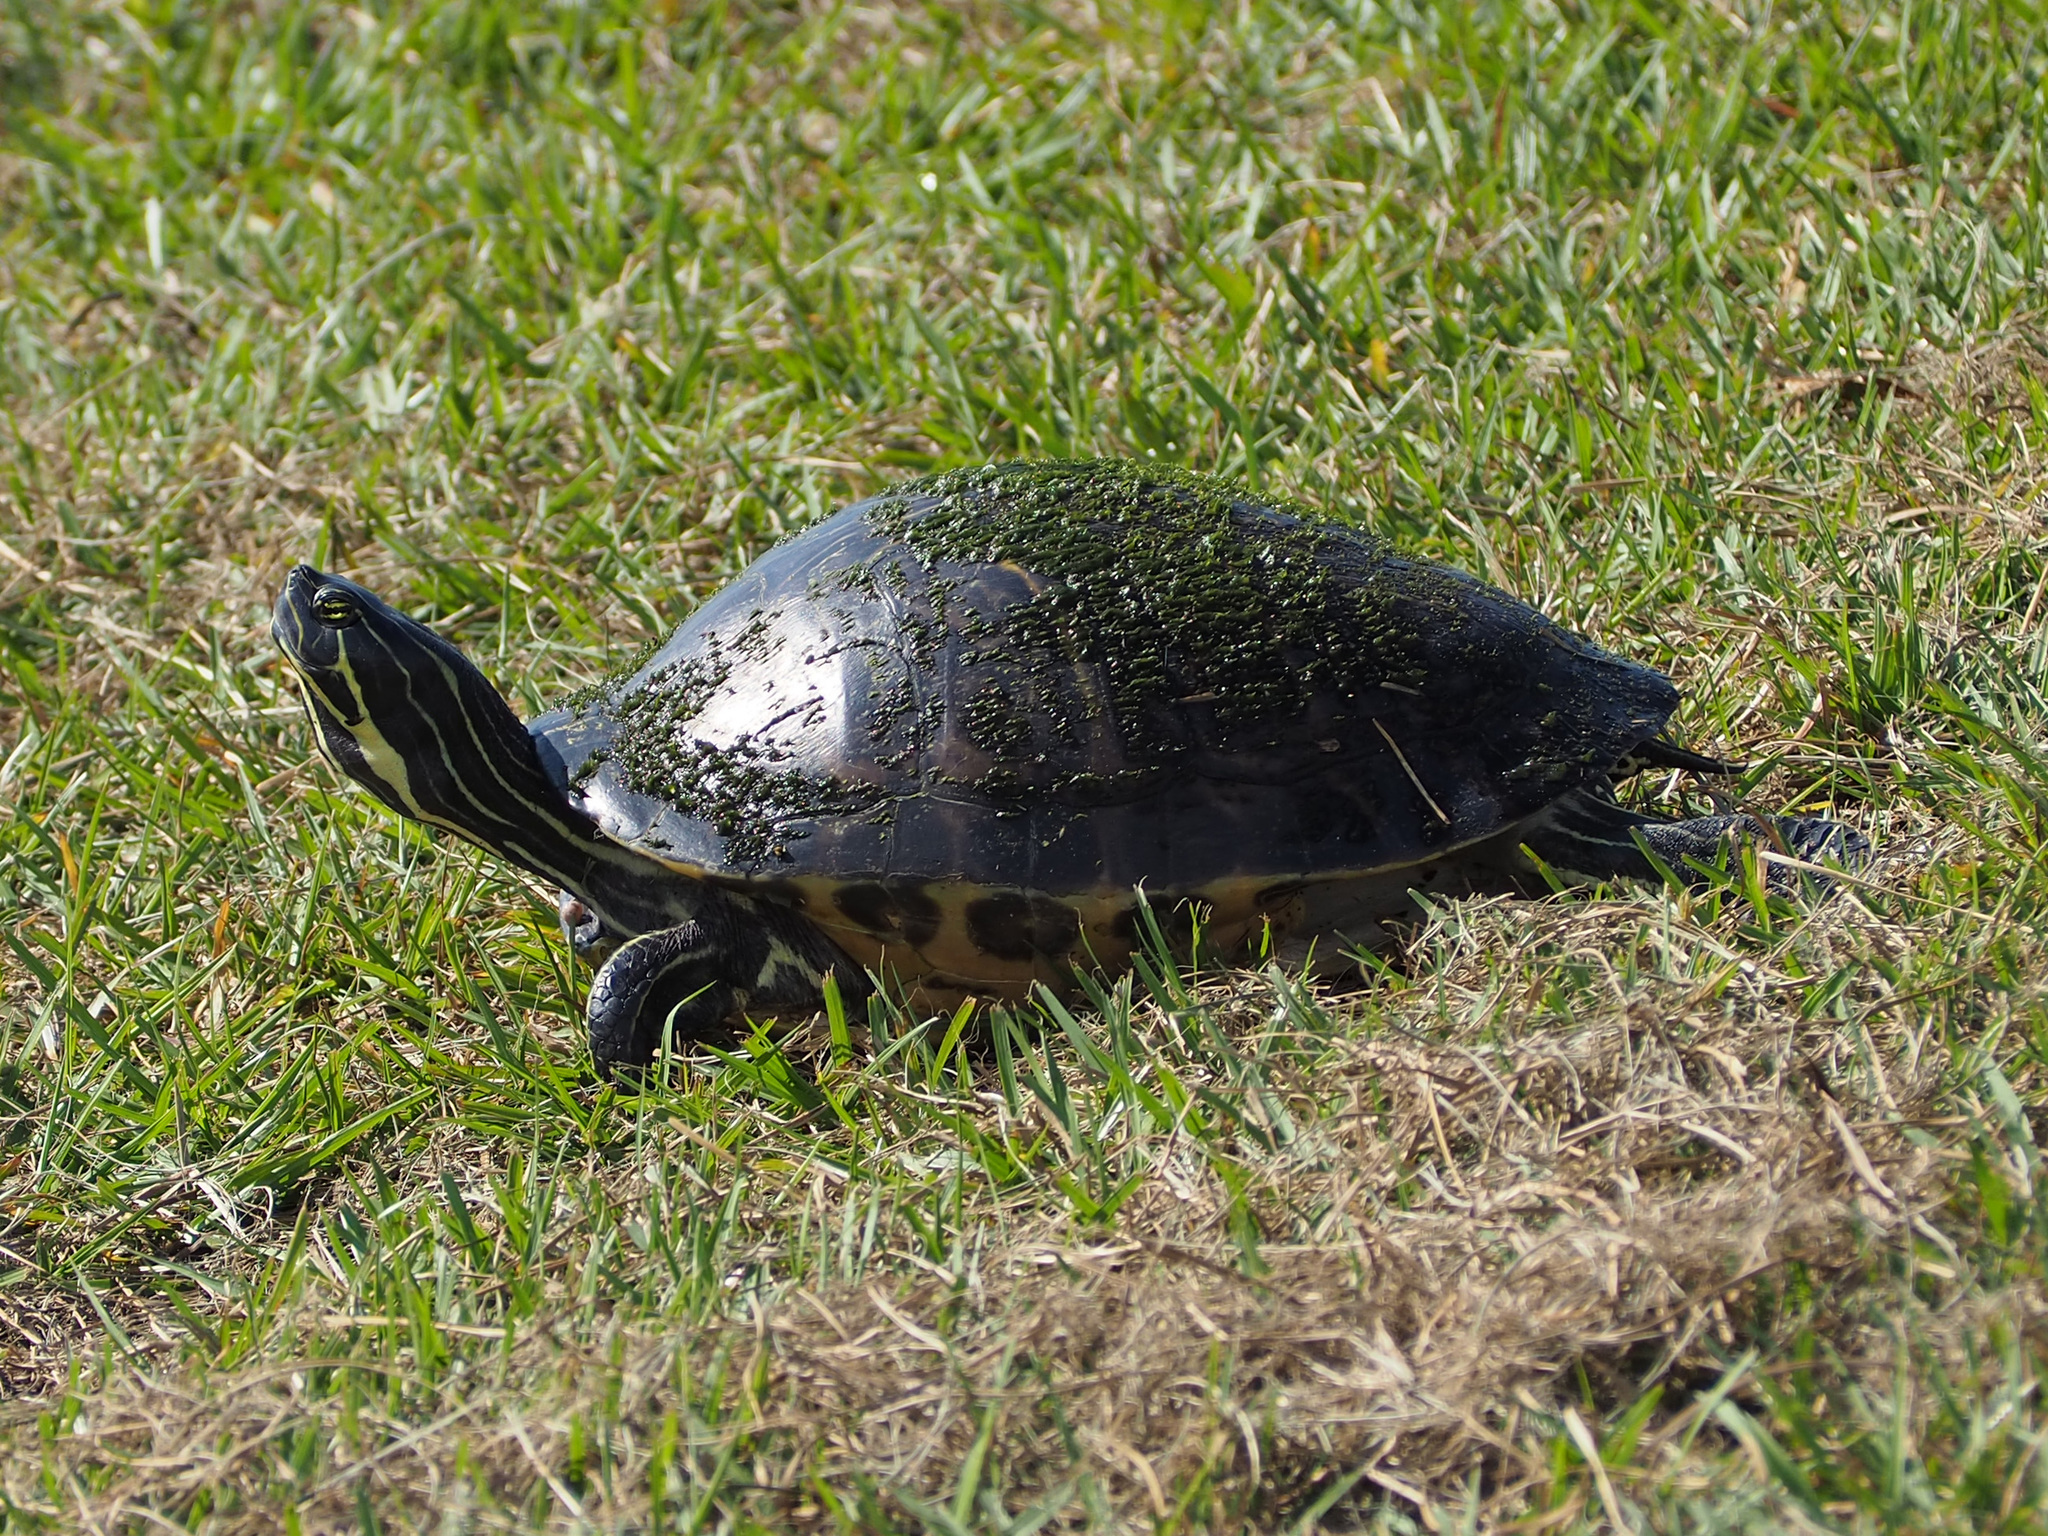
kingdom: Animalia
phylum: Chordata
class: Testudines
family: Emydidae
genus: Pseudemys
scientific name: Pseudemys peninsularis
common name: Peninsula cooter
